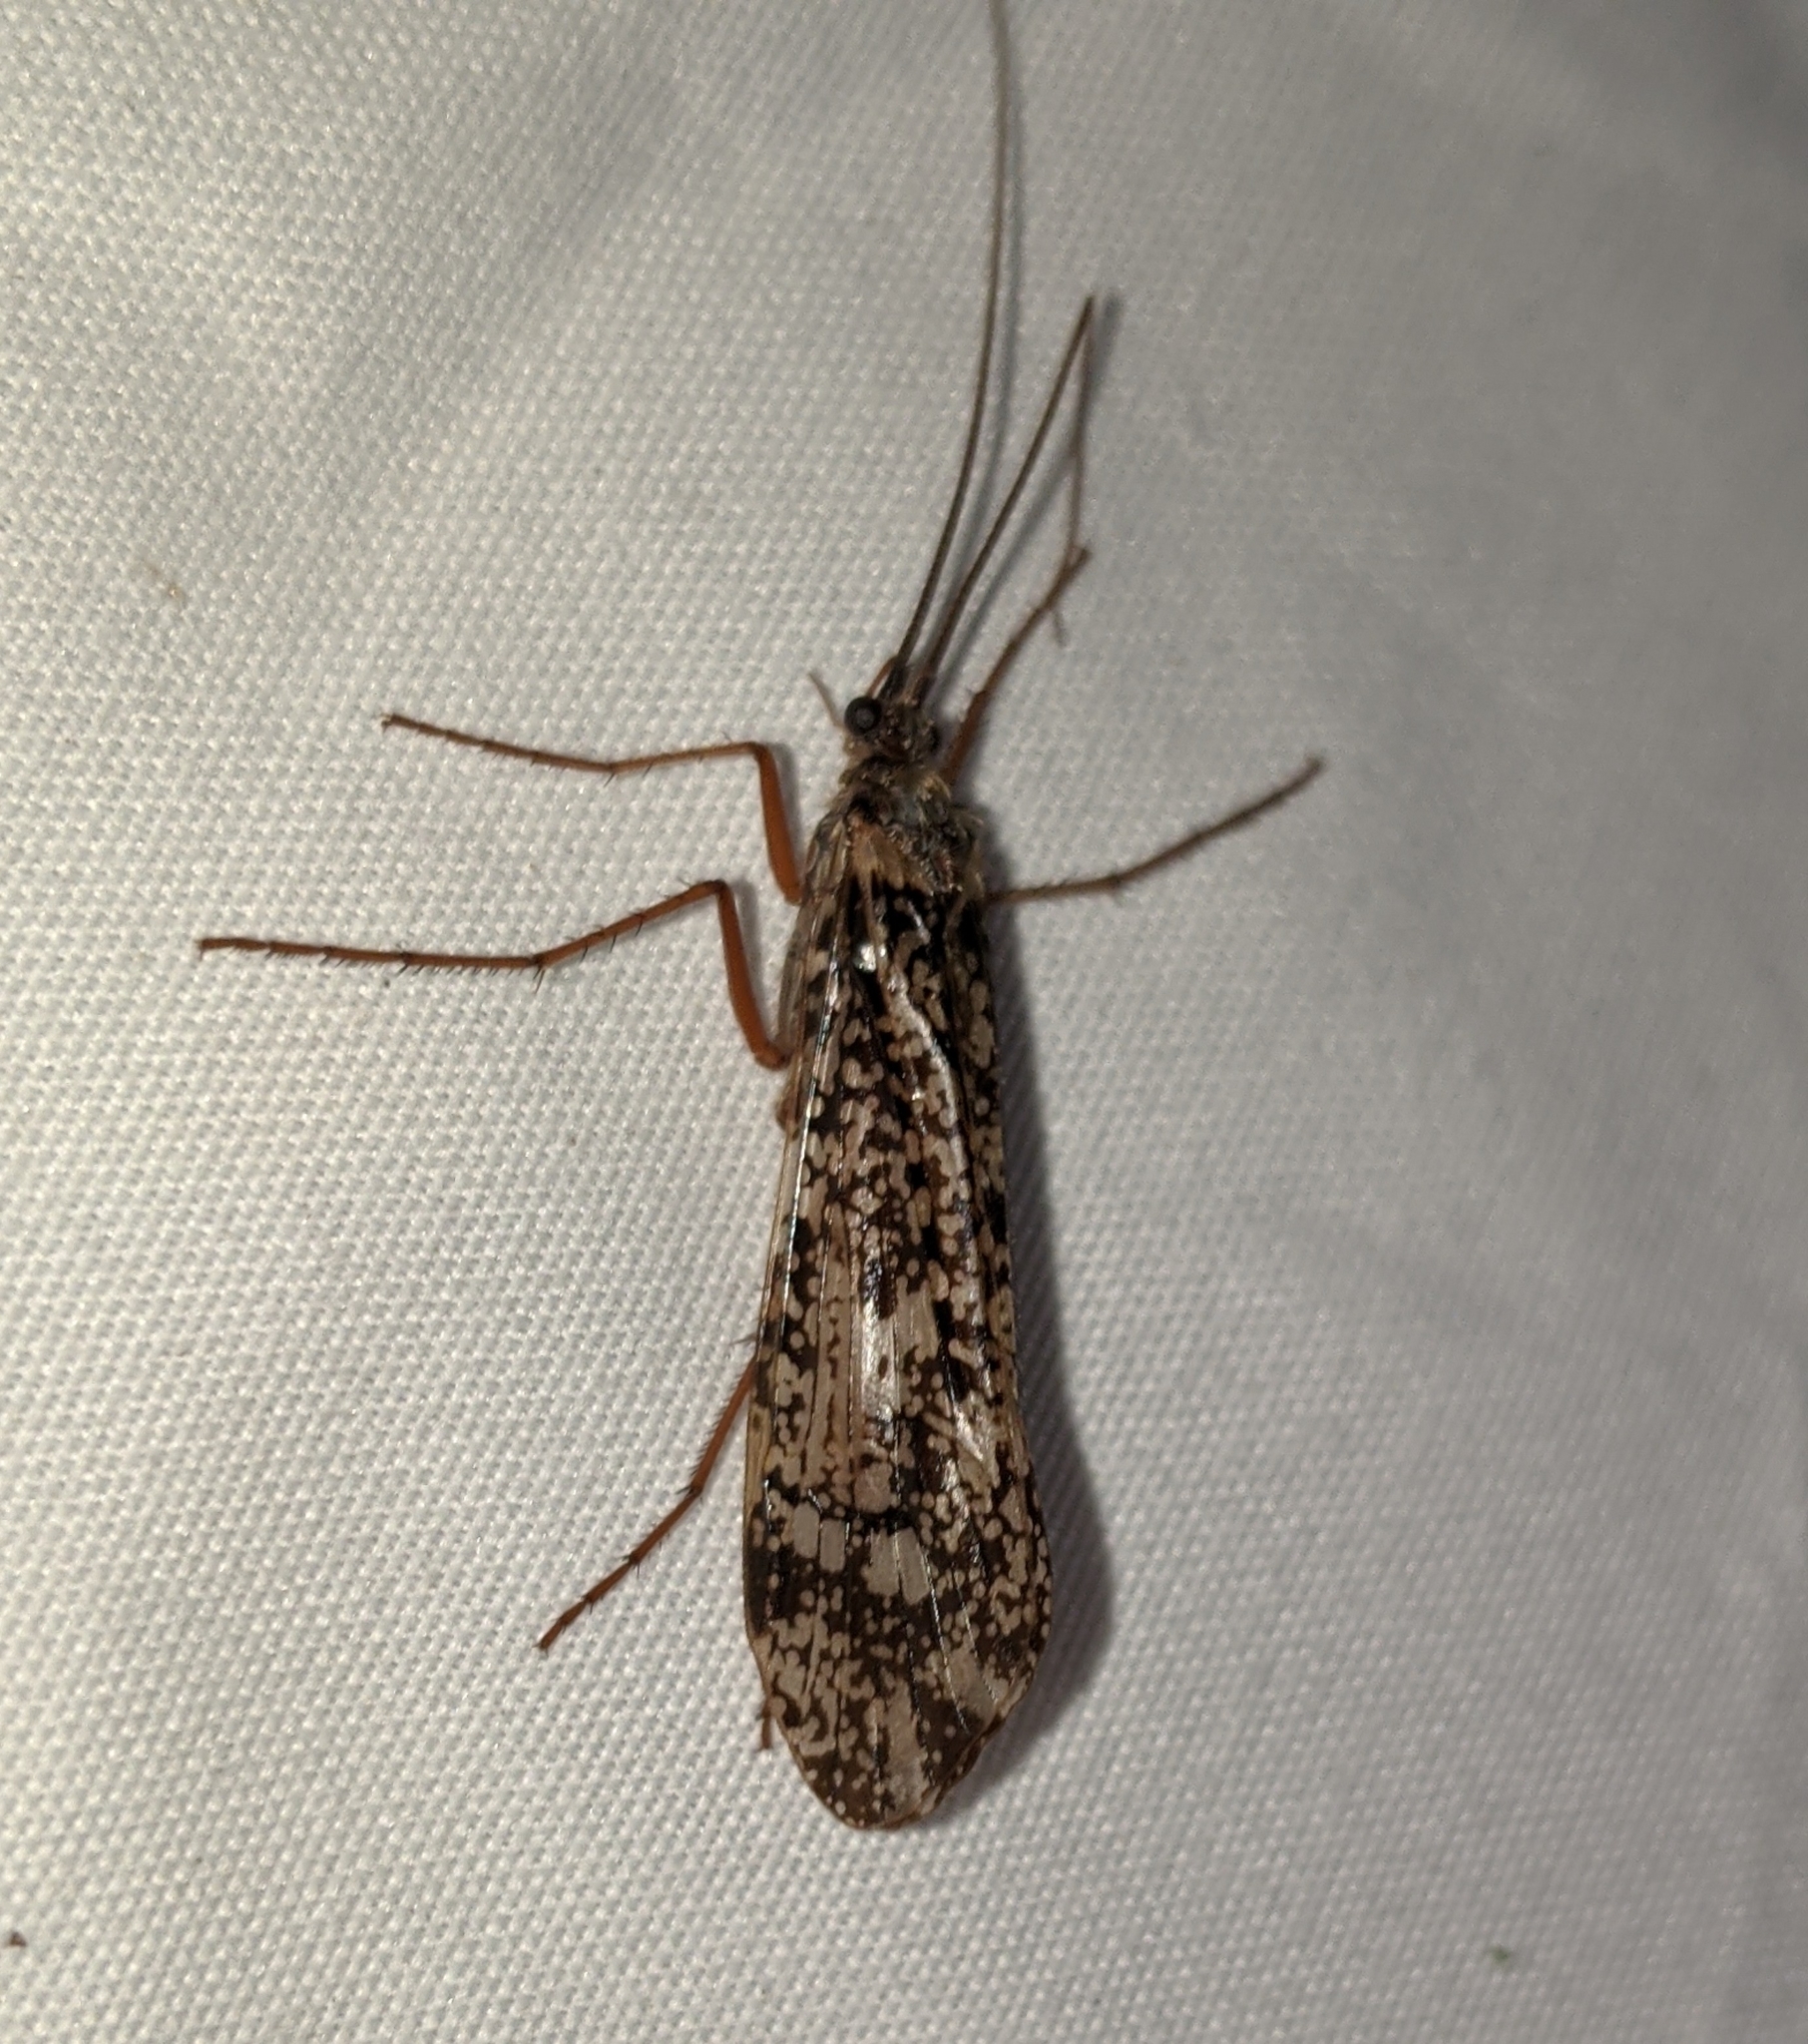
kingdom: Animalia
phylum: Arthropoda
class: Insecta
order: Trichoptera
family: Limnephilidae
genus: Clistoronia
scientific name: Clistoronia magnifica
